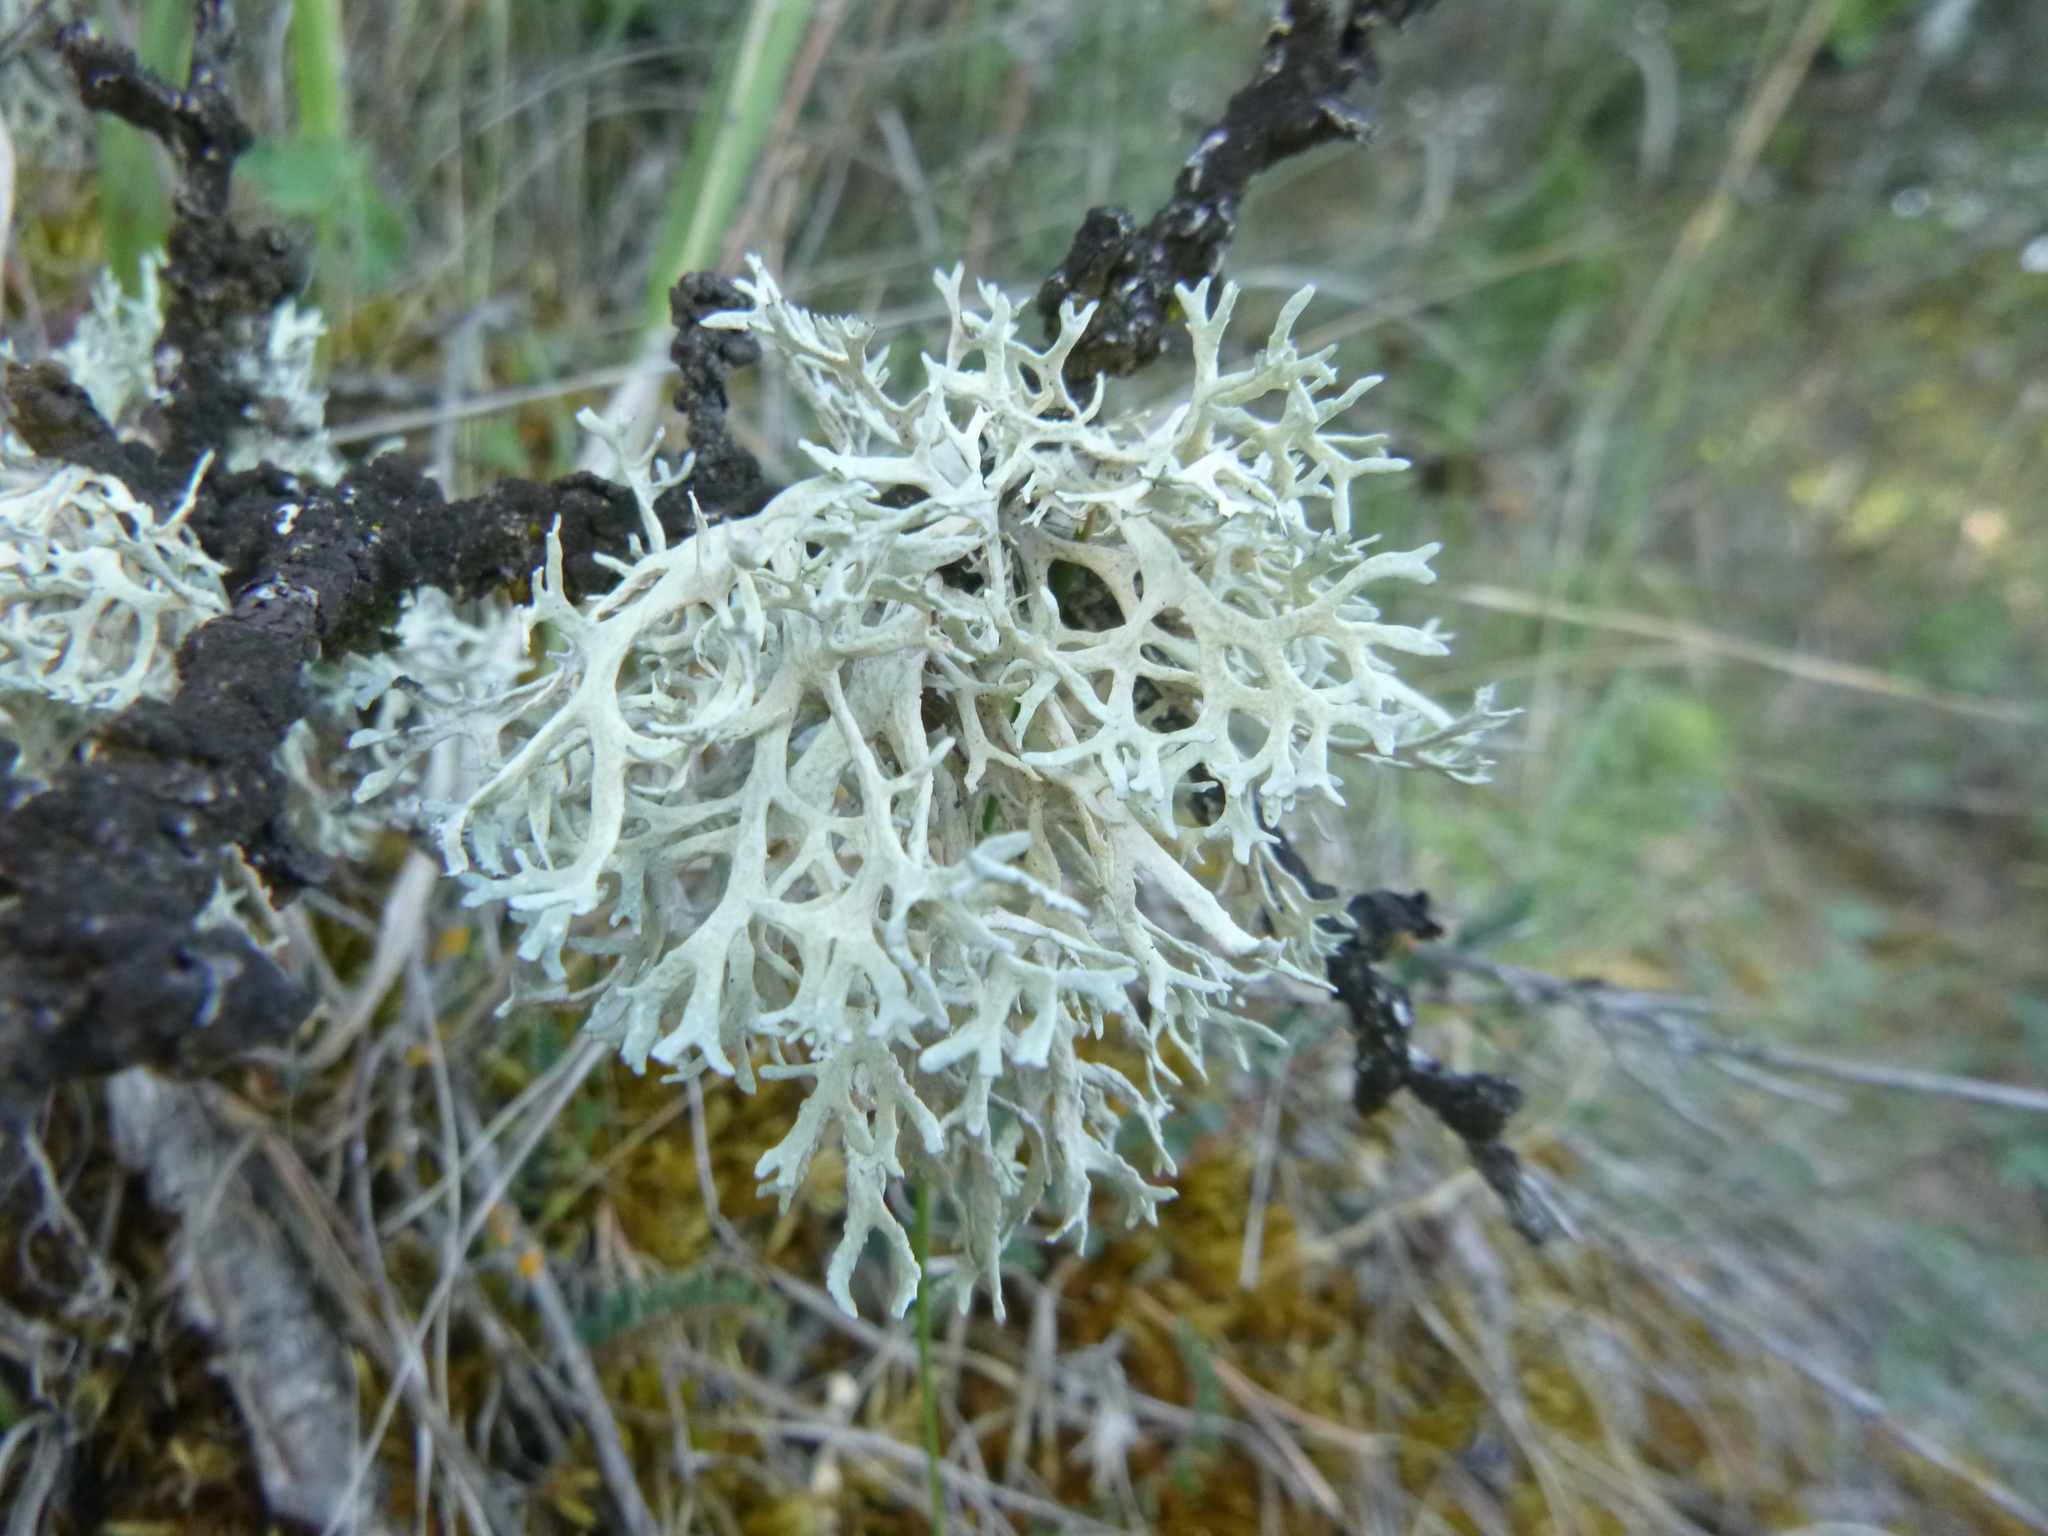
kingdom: Fungi
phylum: Ascomycota
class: Lecanoromycetes
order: Lecanorales
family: Parmeliaceae
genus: Evernia
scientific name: Evernia prunastri
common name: Oak moss
